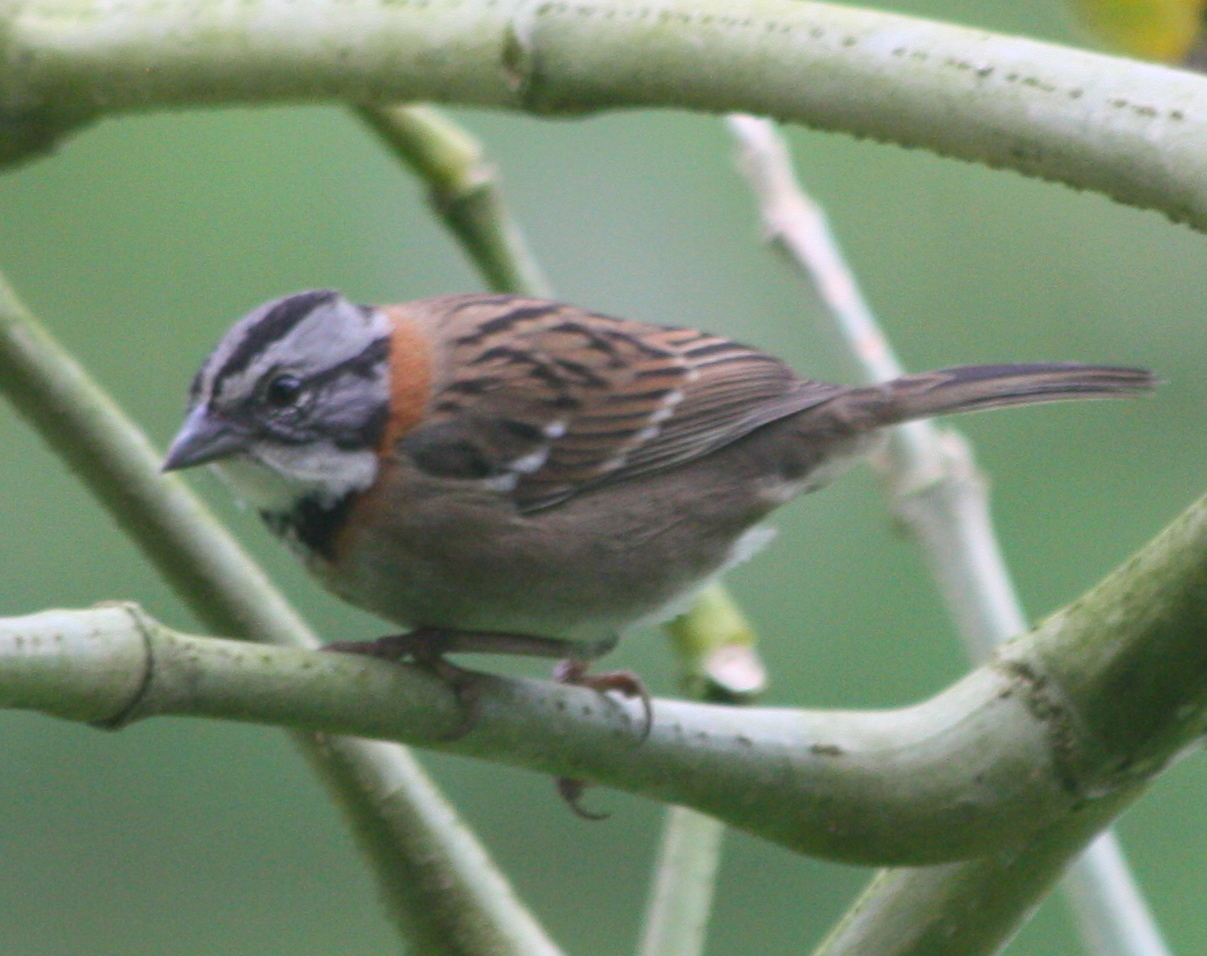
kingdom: Animalia
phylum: Chordata
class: Aves
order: Passeriformes
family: Passerellidae
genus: Zonotrichia
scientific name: Zonotrichia capensis
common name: Rufous-collared sparrow
